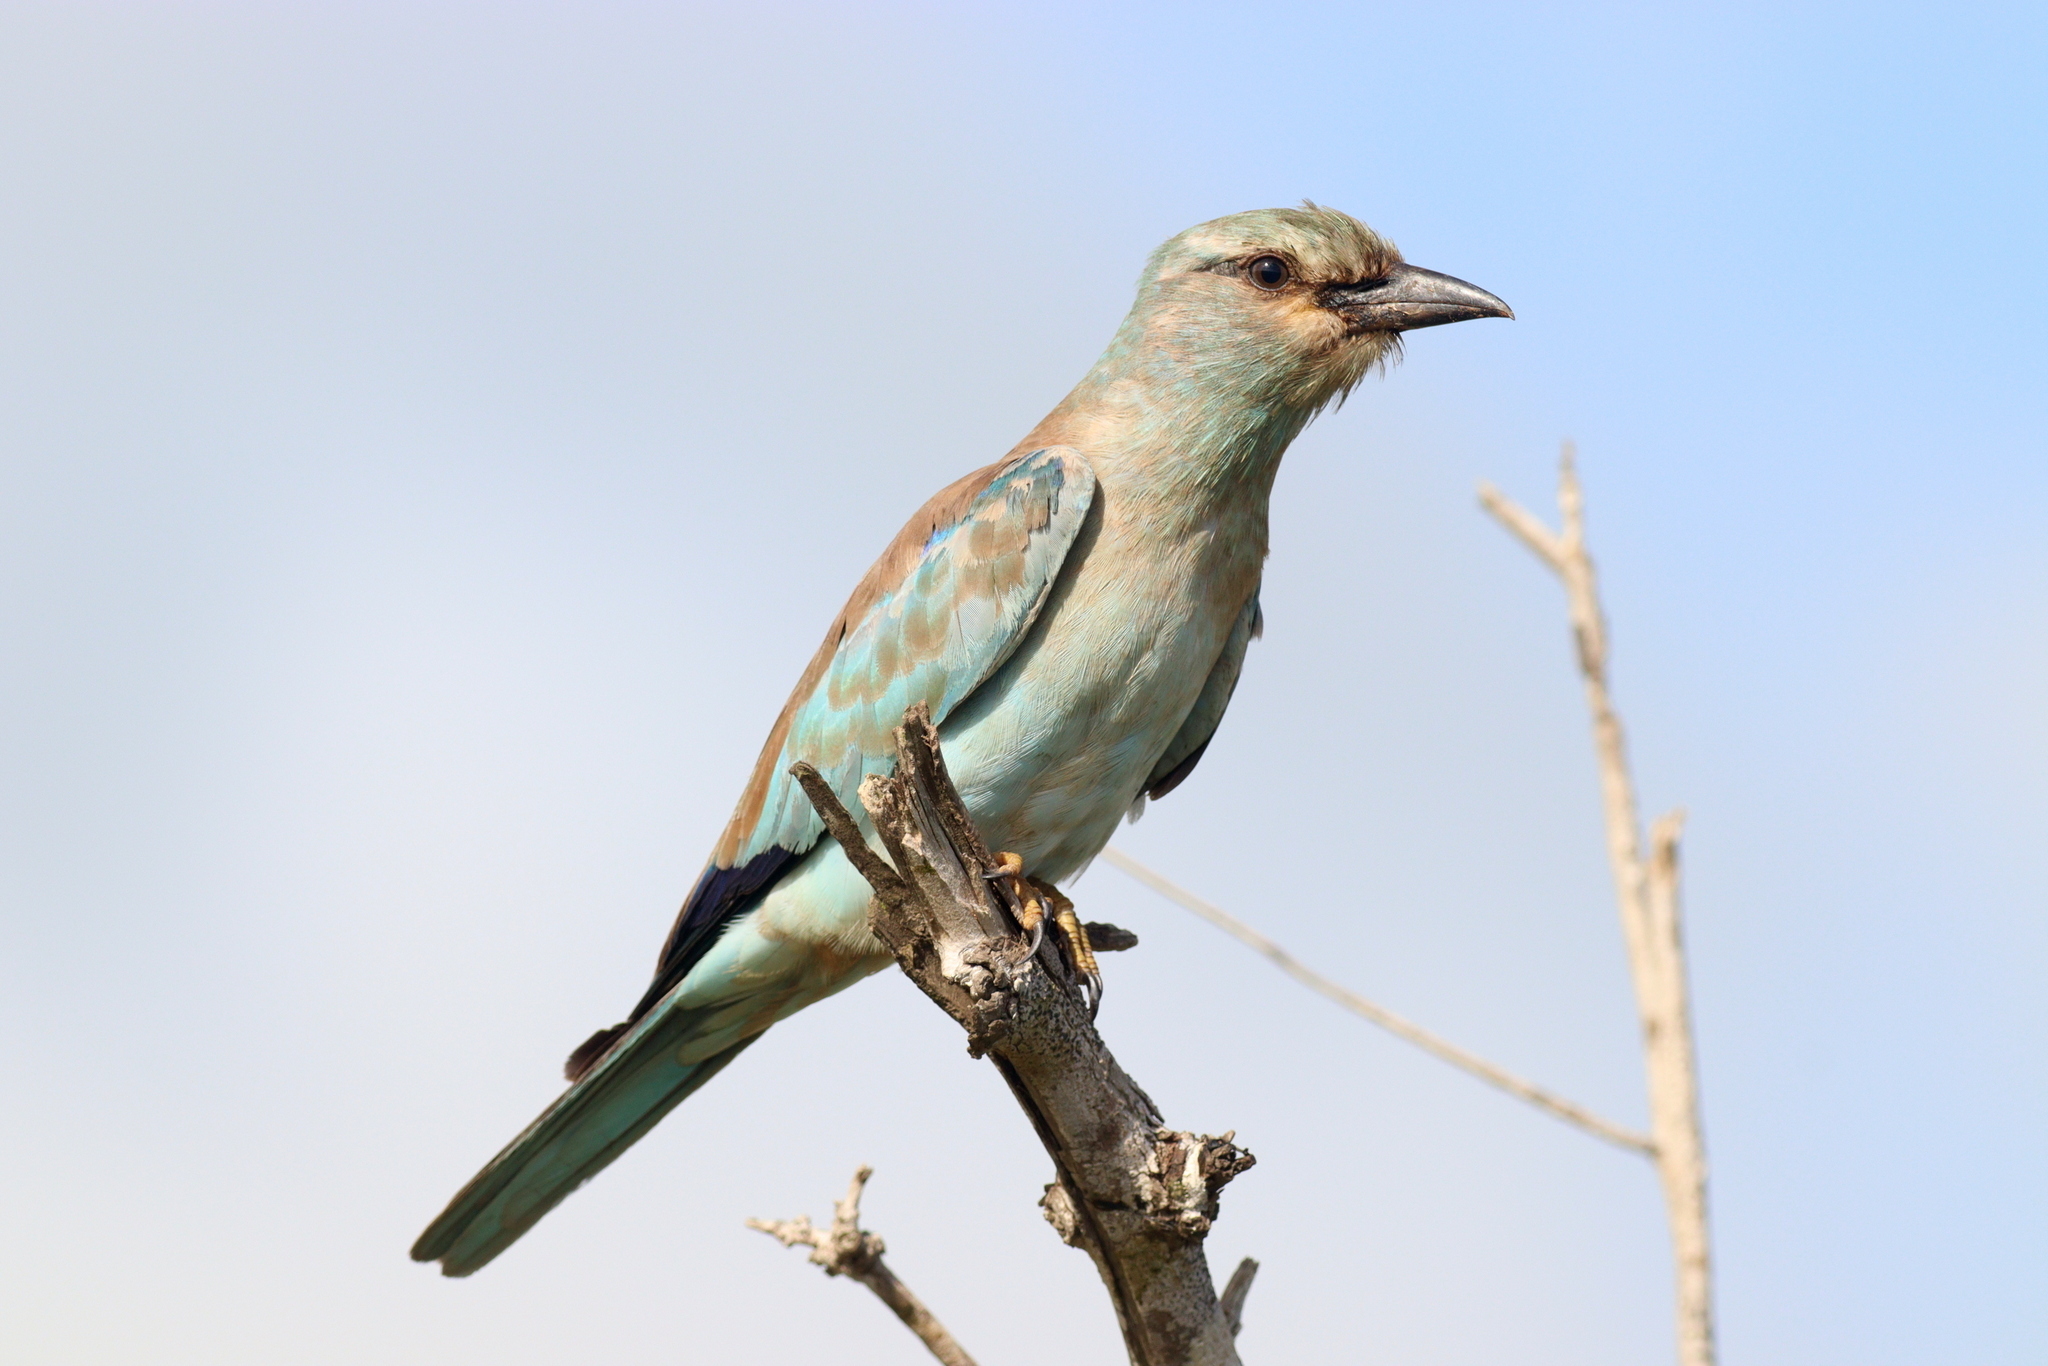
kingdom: Animalia
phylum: Chordata
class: Aves
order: Coraciiformes
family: Coraciidae
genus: Coracias
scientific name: Coracias garrulus
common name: European roller
